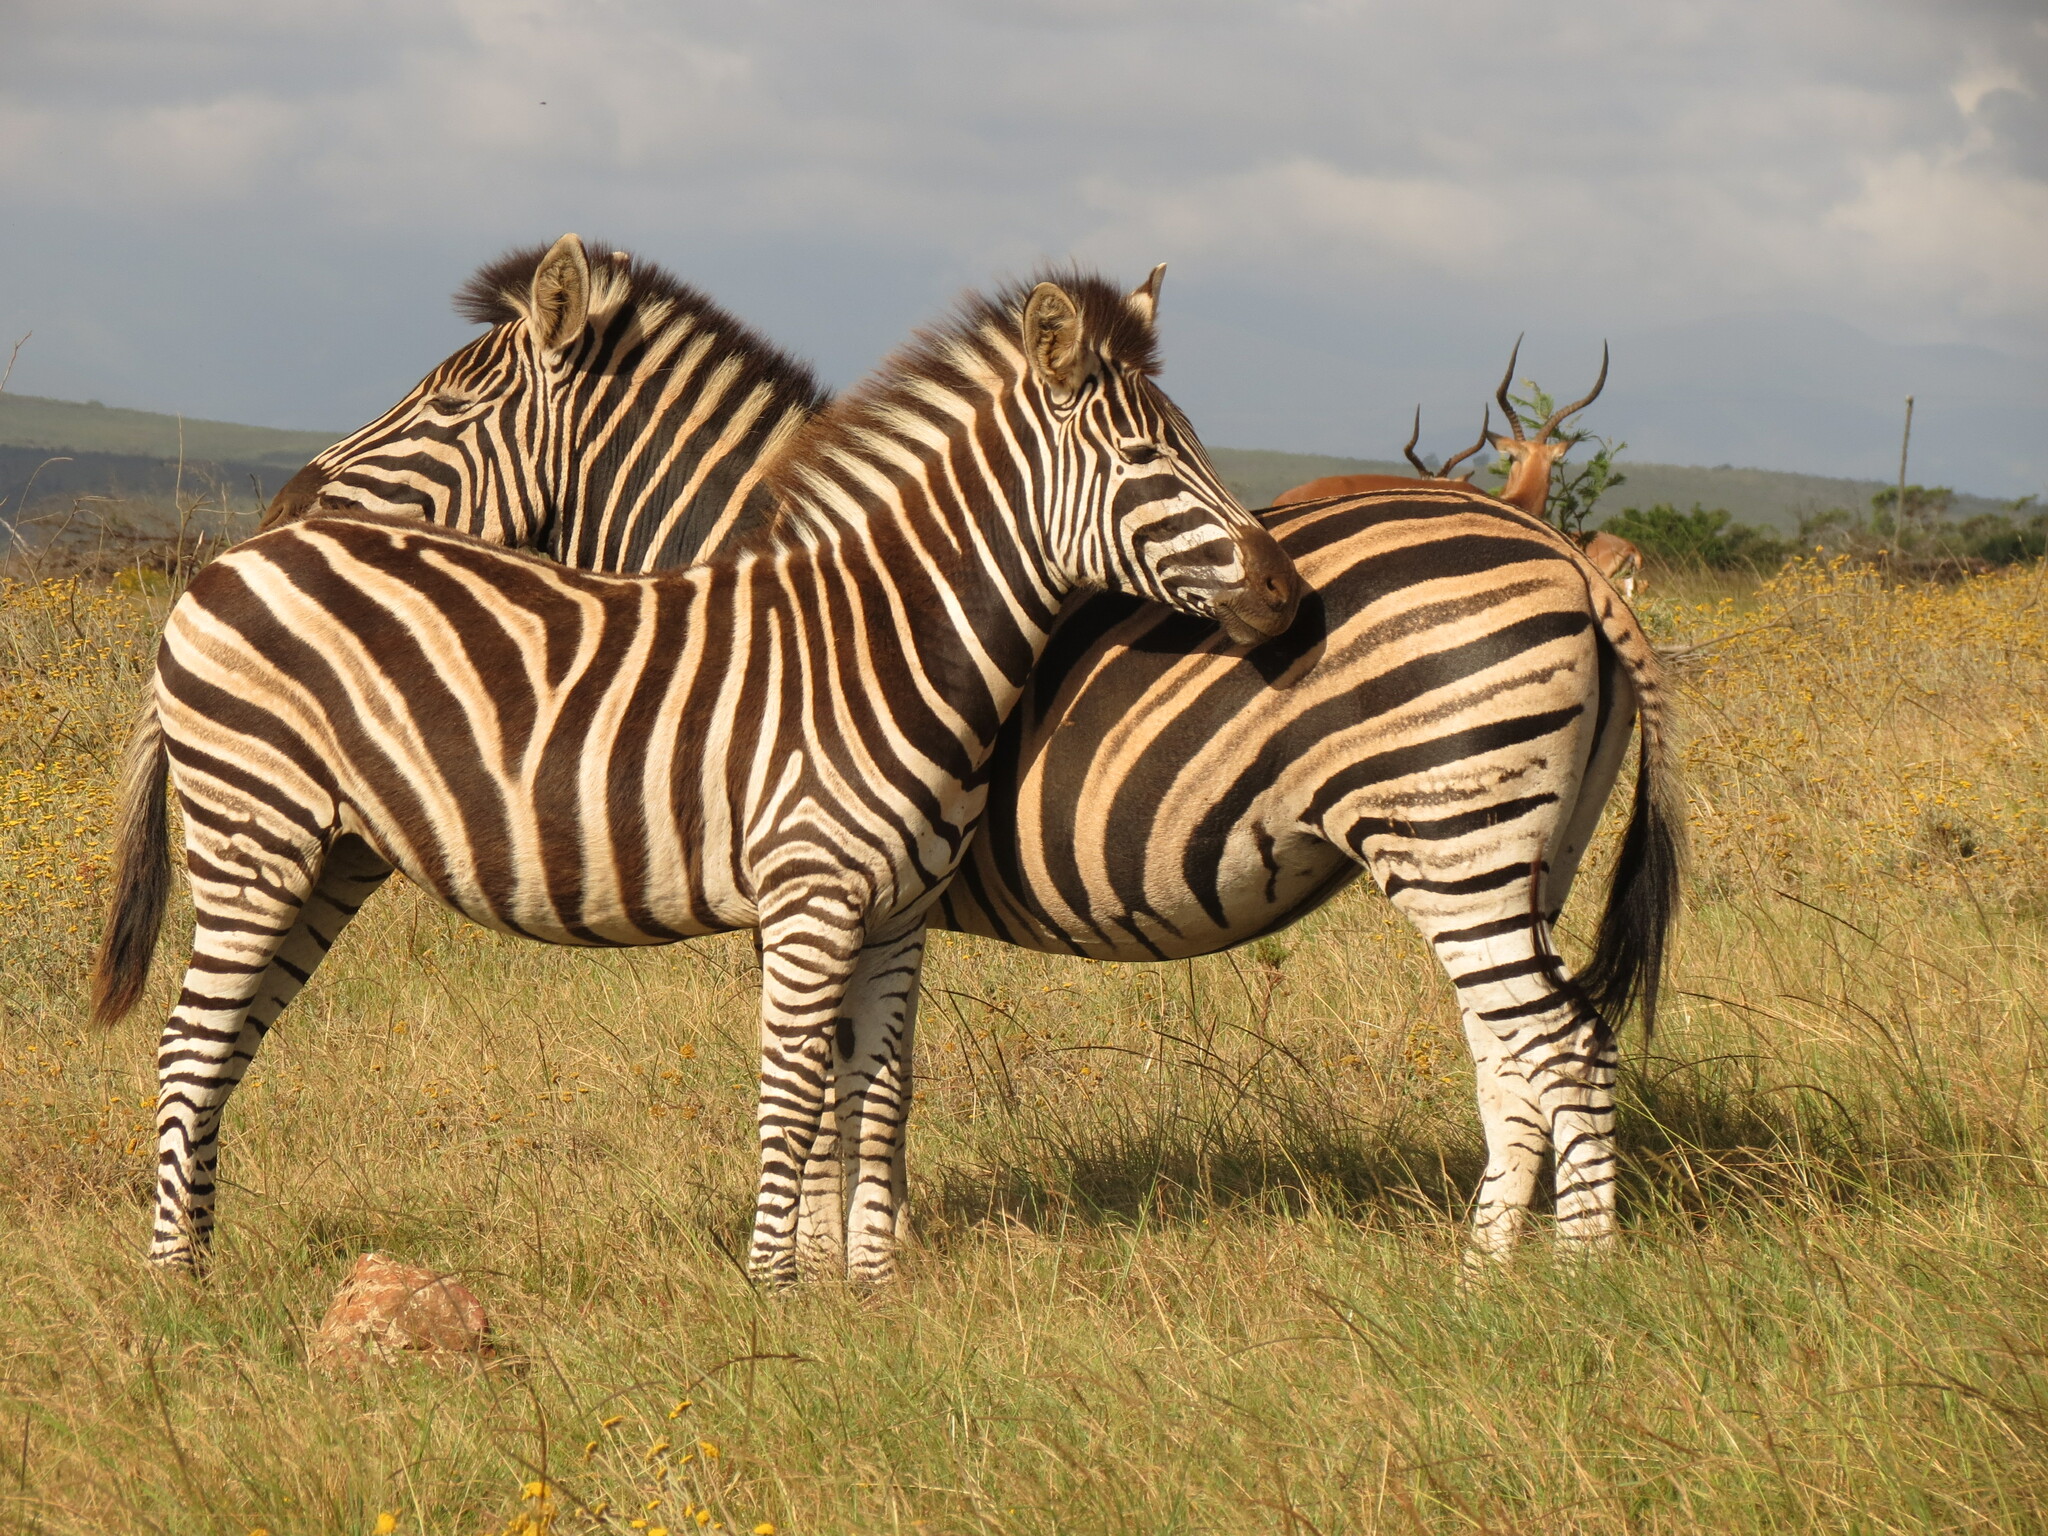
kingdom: Animalia
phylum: Chordata
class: Mammalia
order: Perissodactyla
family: Equidae
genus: Equus
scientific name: Equus quagga
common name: Plains zebra
